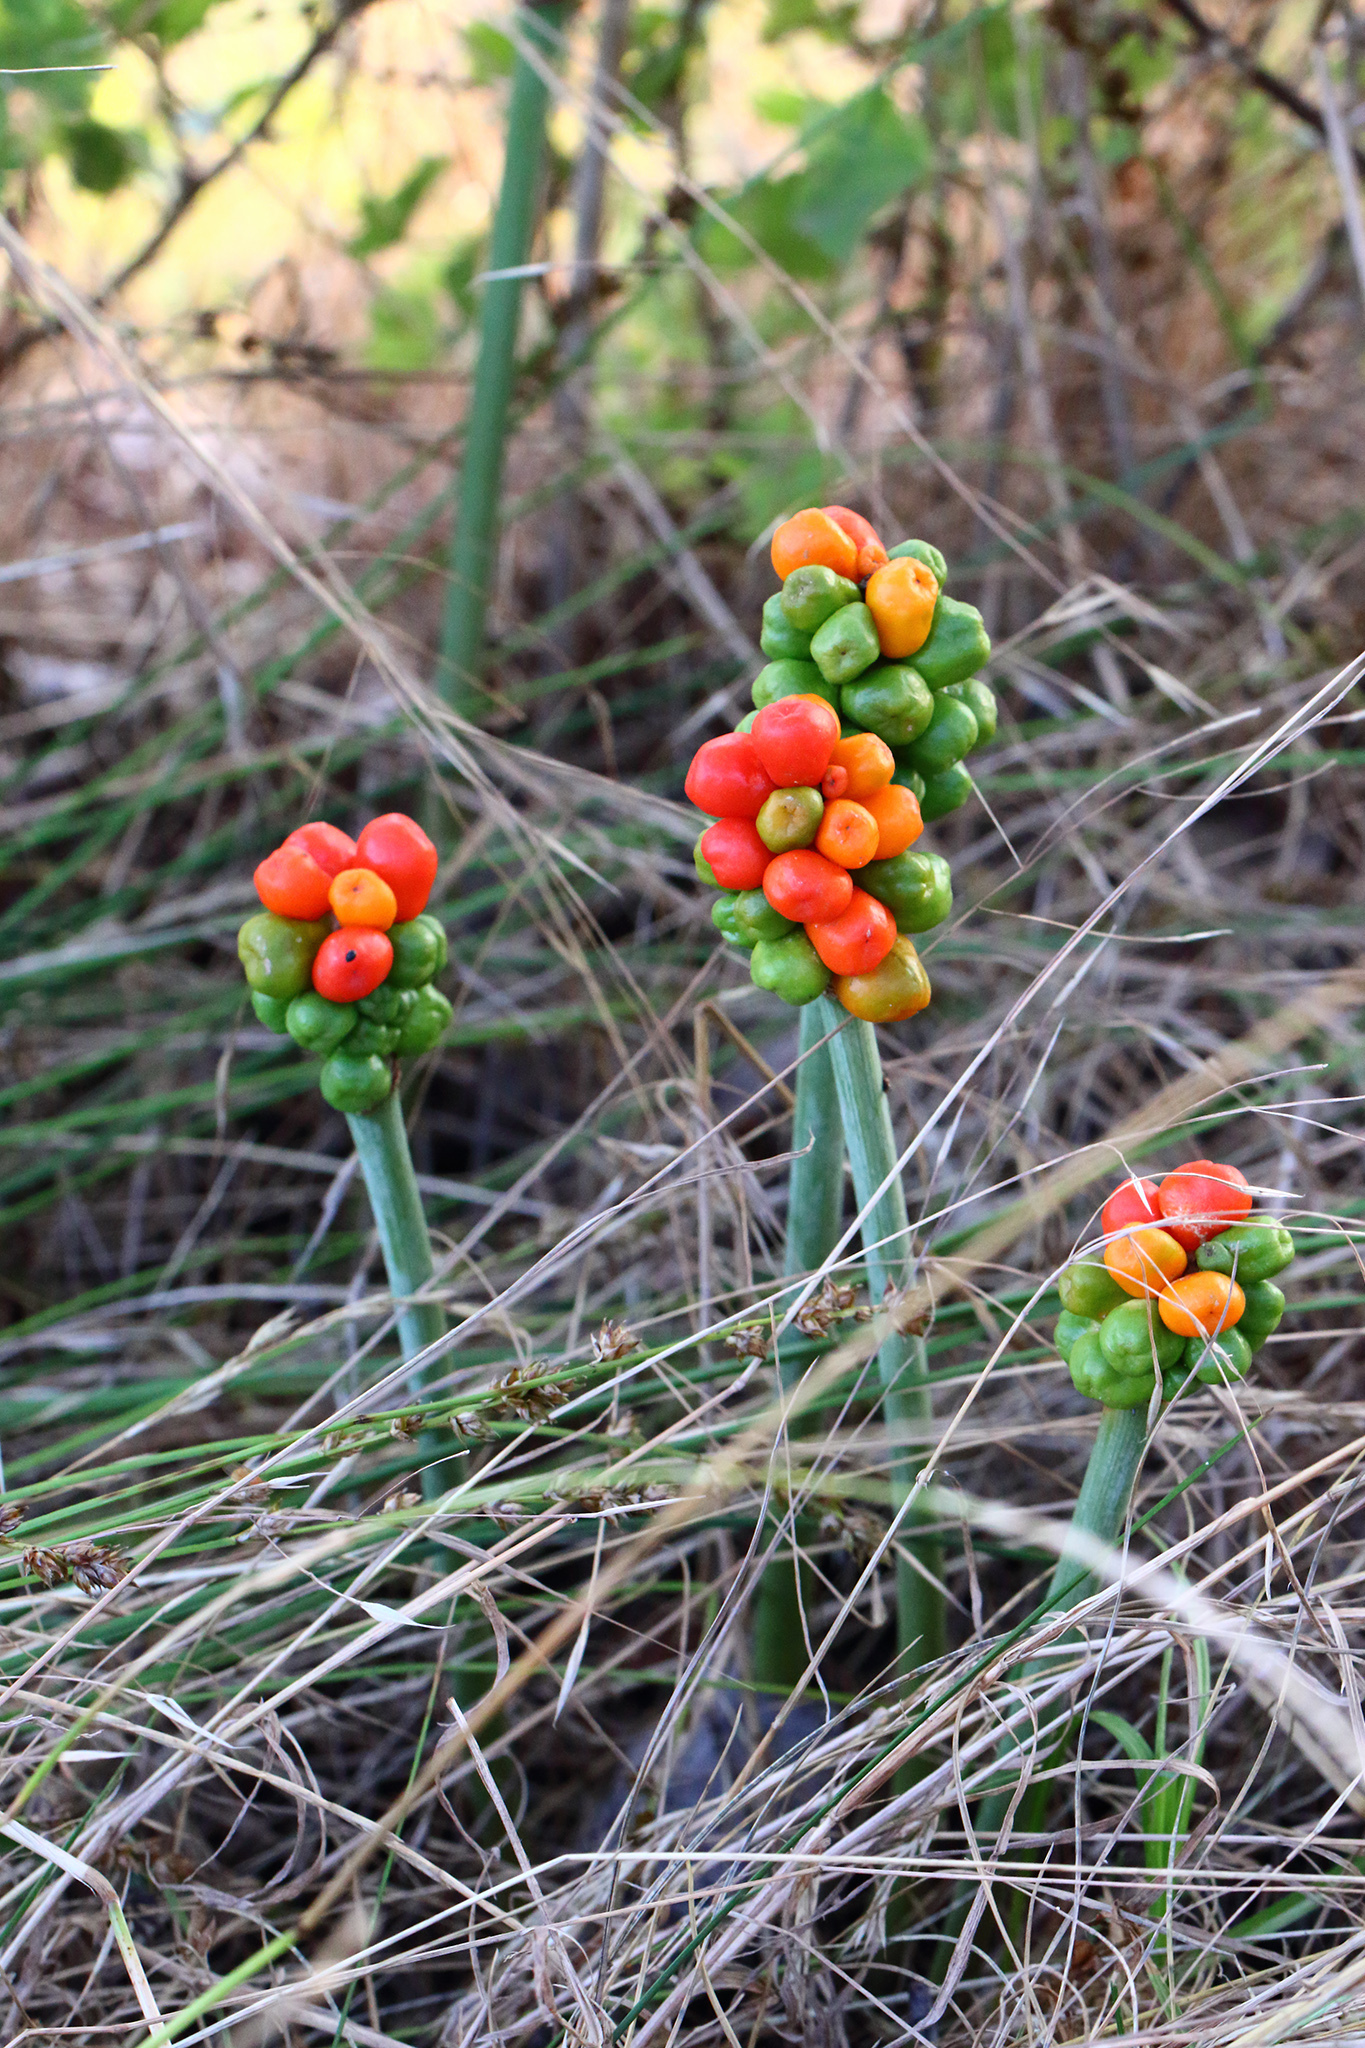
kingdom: Plantae
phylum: Tracheophyta
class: Liliopsida
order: Alismatales
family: Araceae
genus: Arum
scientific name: Arum maculatum
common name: Lords-and-ladies
